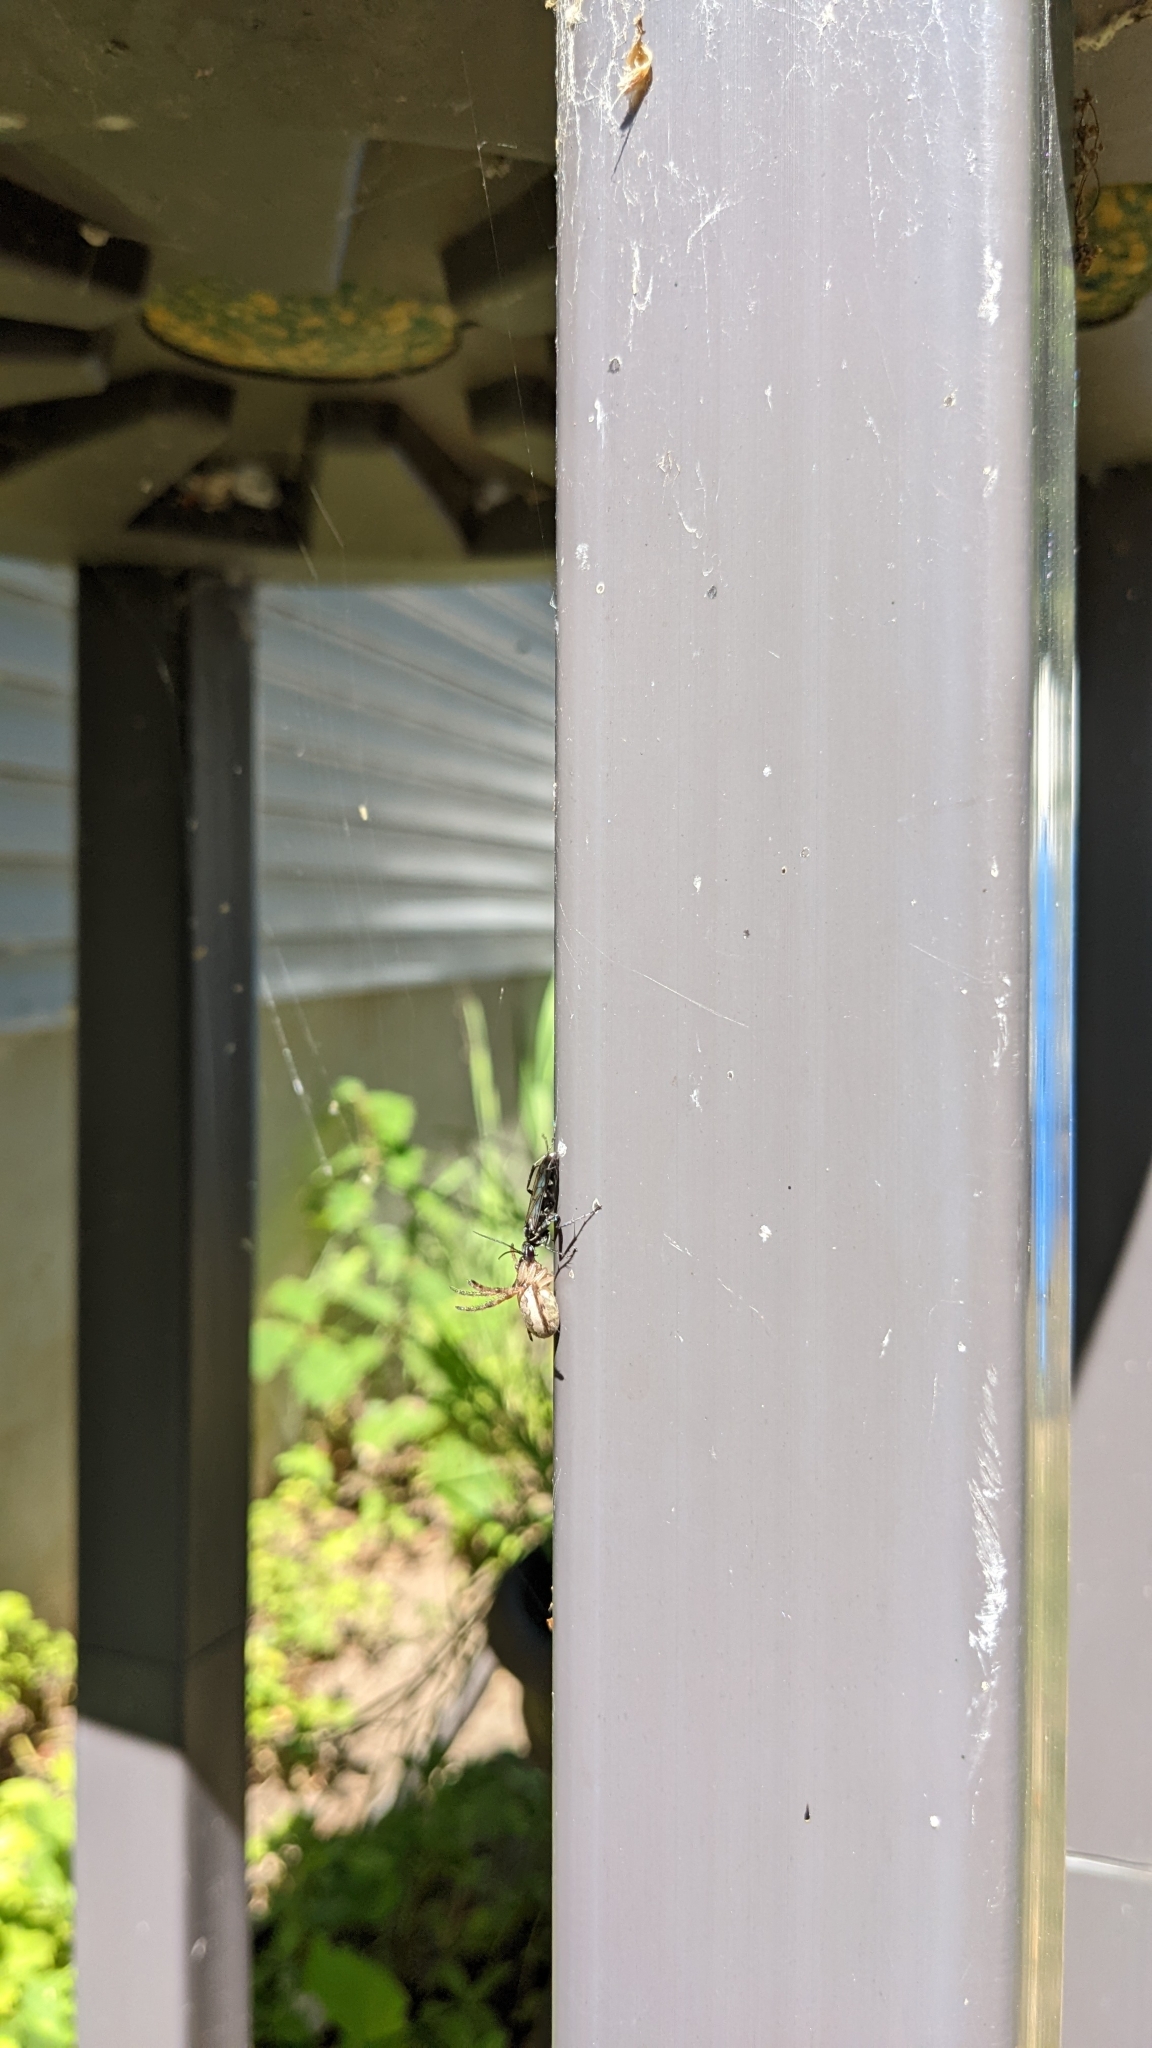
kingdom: Animalia
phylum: Arthropoda
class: Insecta
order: Hymenoptera
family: Pompilidae
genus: Episyron
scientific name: Episyron quinquenotatus
